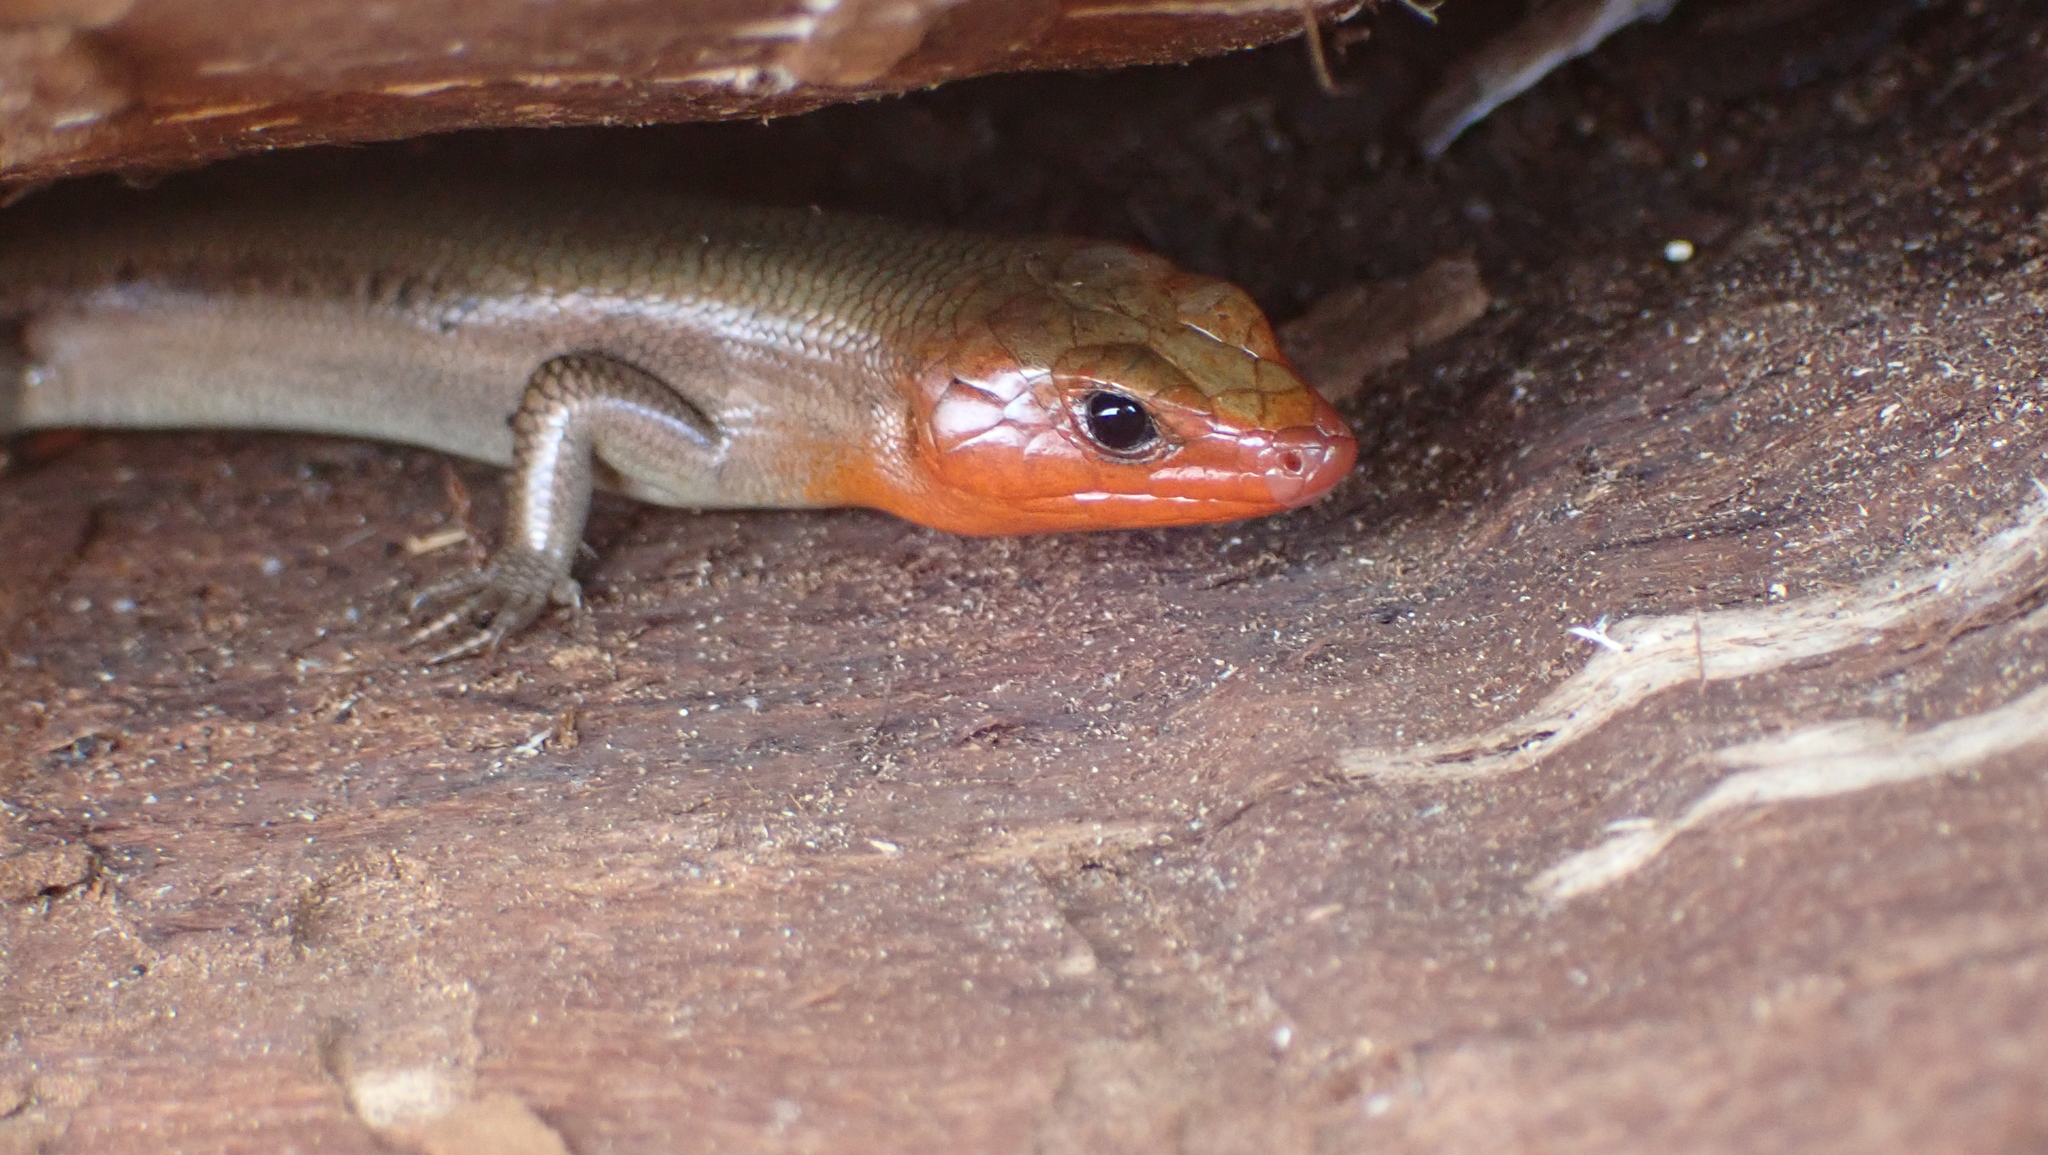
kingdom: Animalia
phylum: Chordata
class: Squamata
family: Scincidae
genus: Plestiodon
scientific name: Plestiodon fasciatus
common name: Five-lined skink
